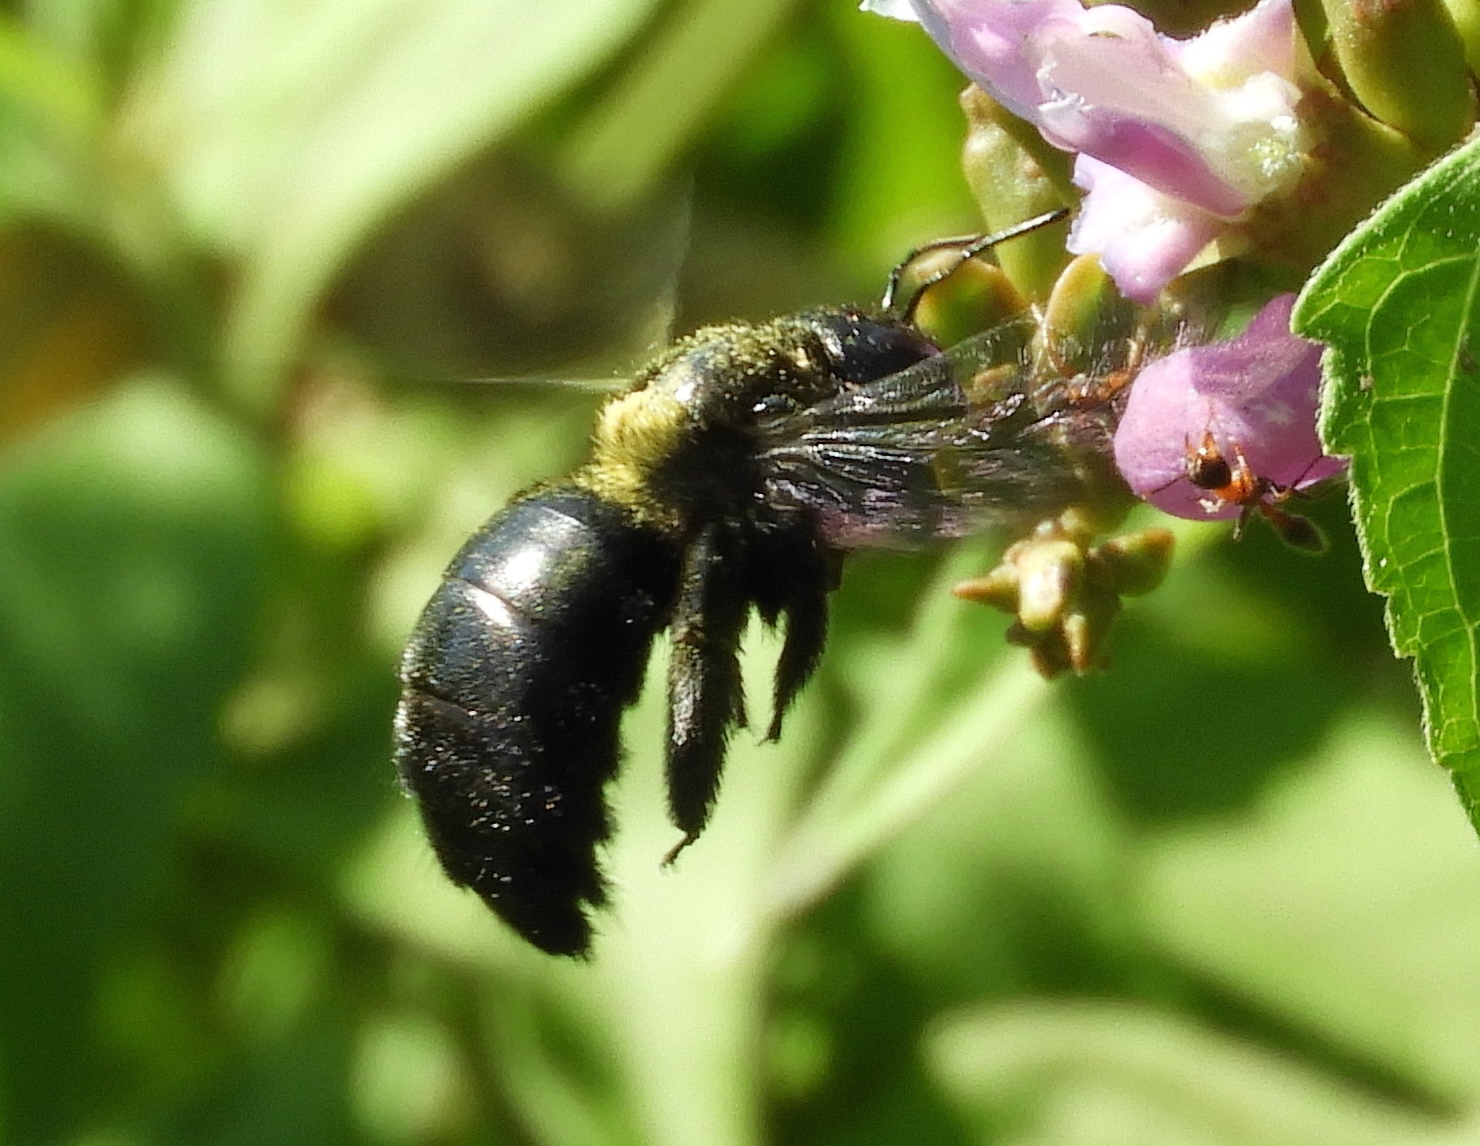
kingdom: Animalia
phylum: Arthropoda
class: Insecta
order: Hymenoptera
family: Apidae
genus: Xylocopa
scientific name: Xylocopa
